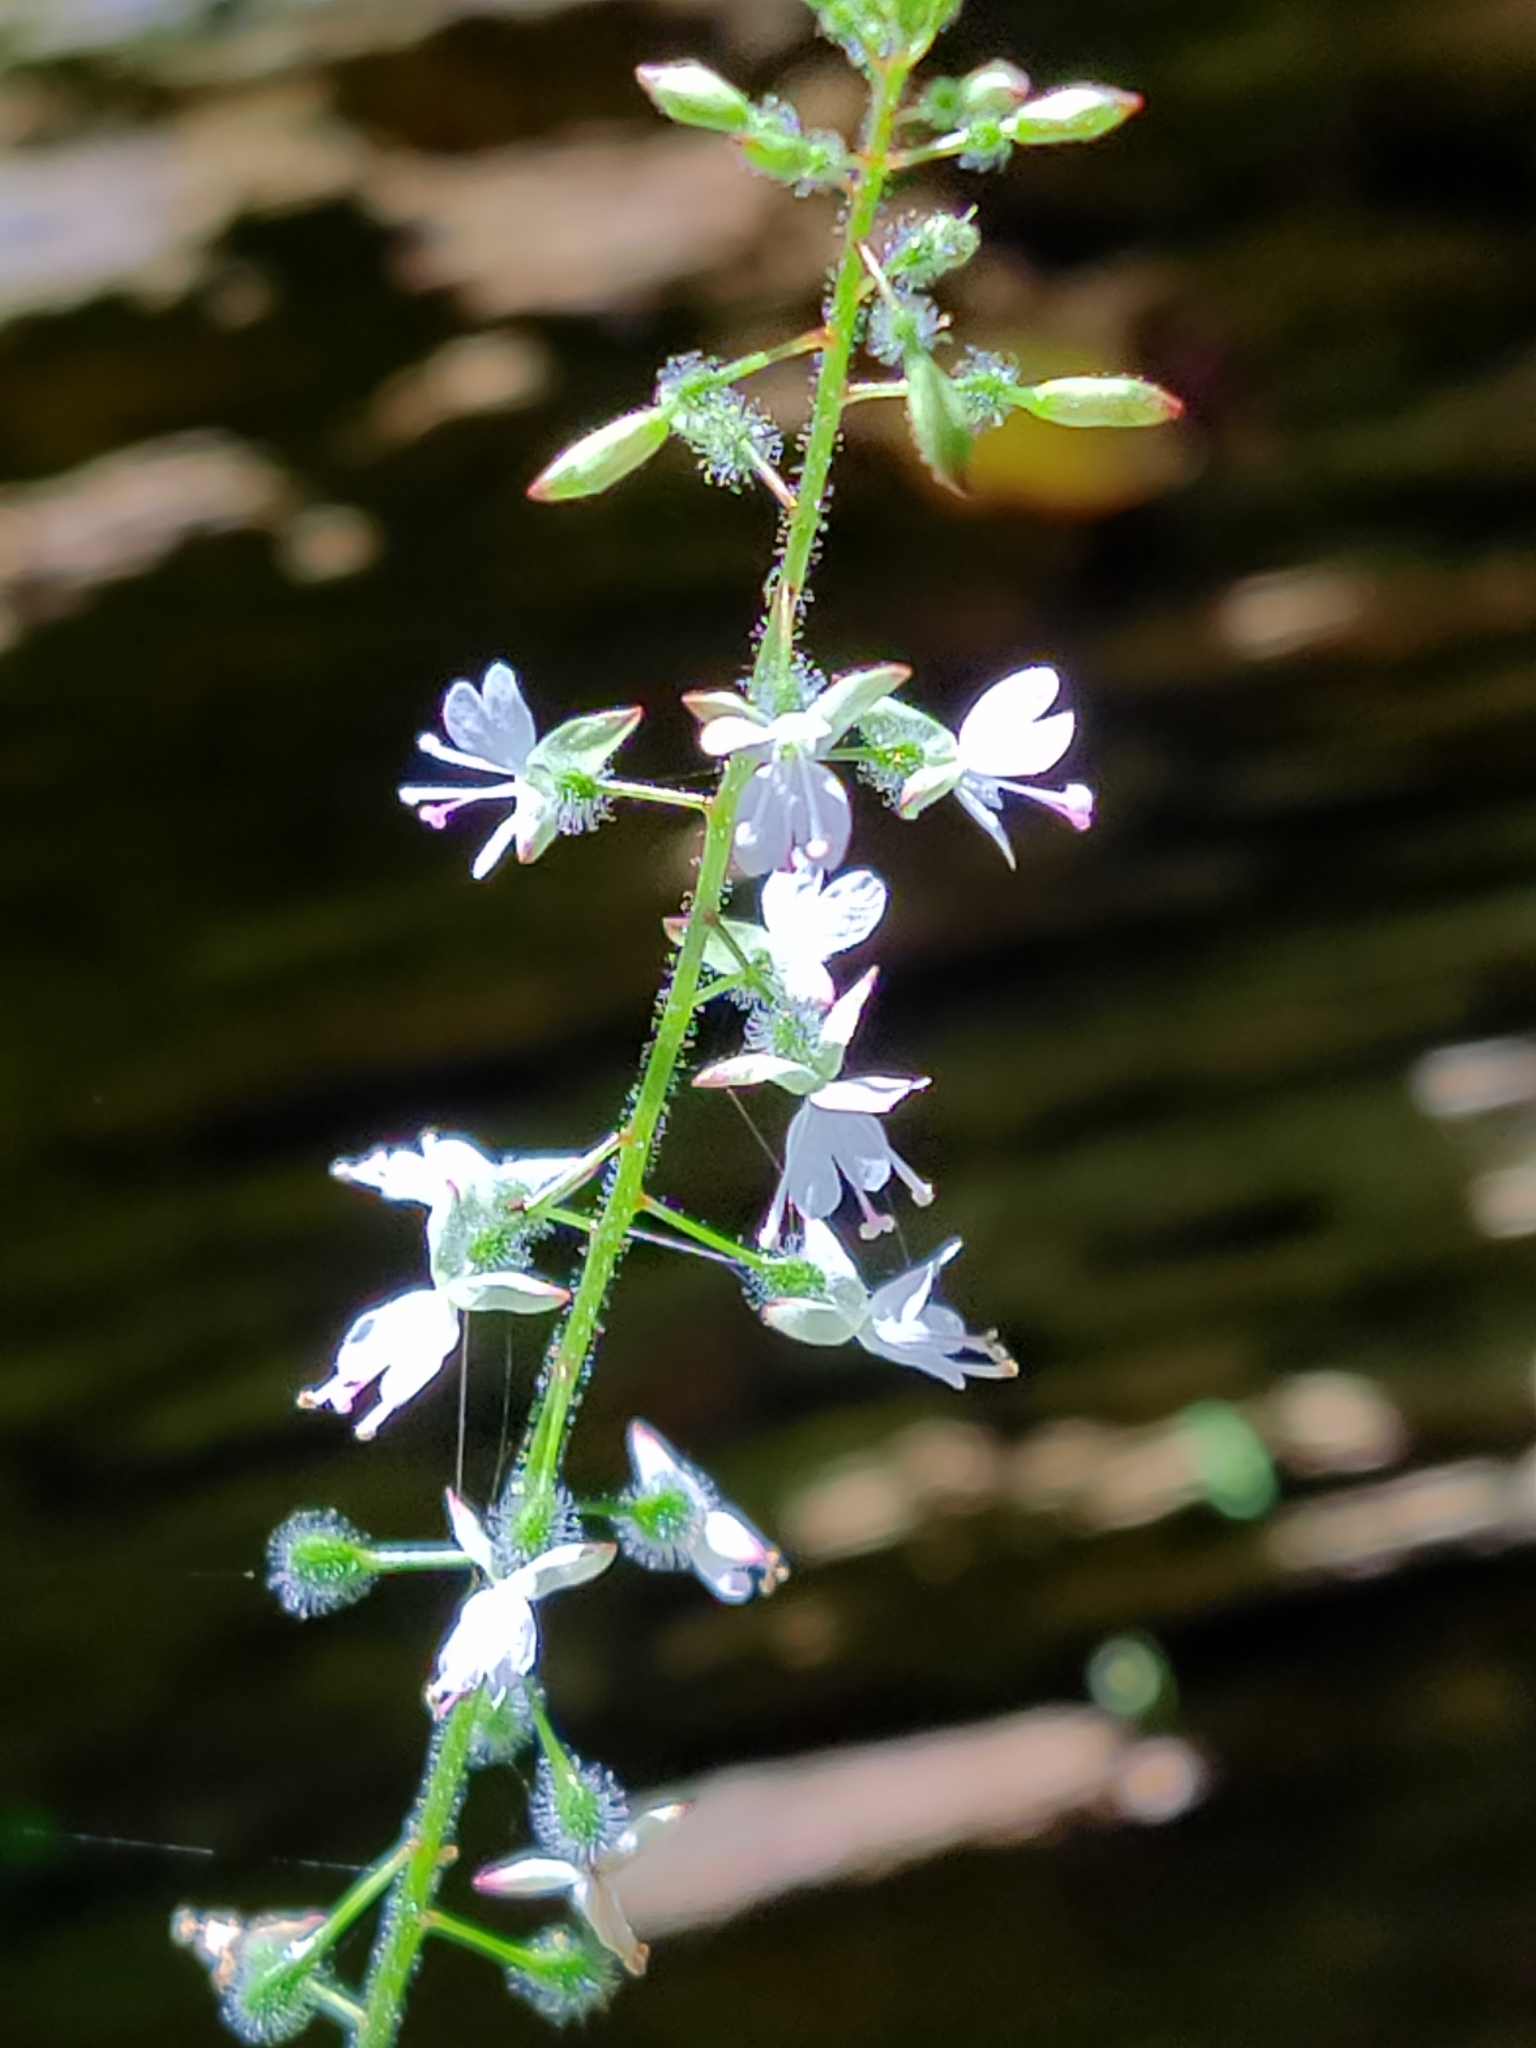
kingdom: Plantae
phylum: Tracheophyta
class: Magnoliopsida
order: Myrtales
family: Onagraceae
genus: Circaea
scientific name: Circaea lutetiana
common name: Enchanter's-nightshade
